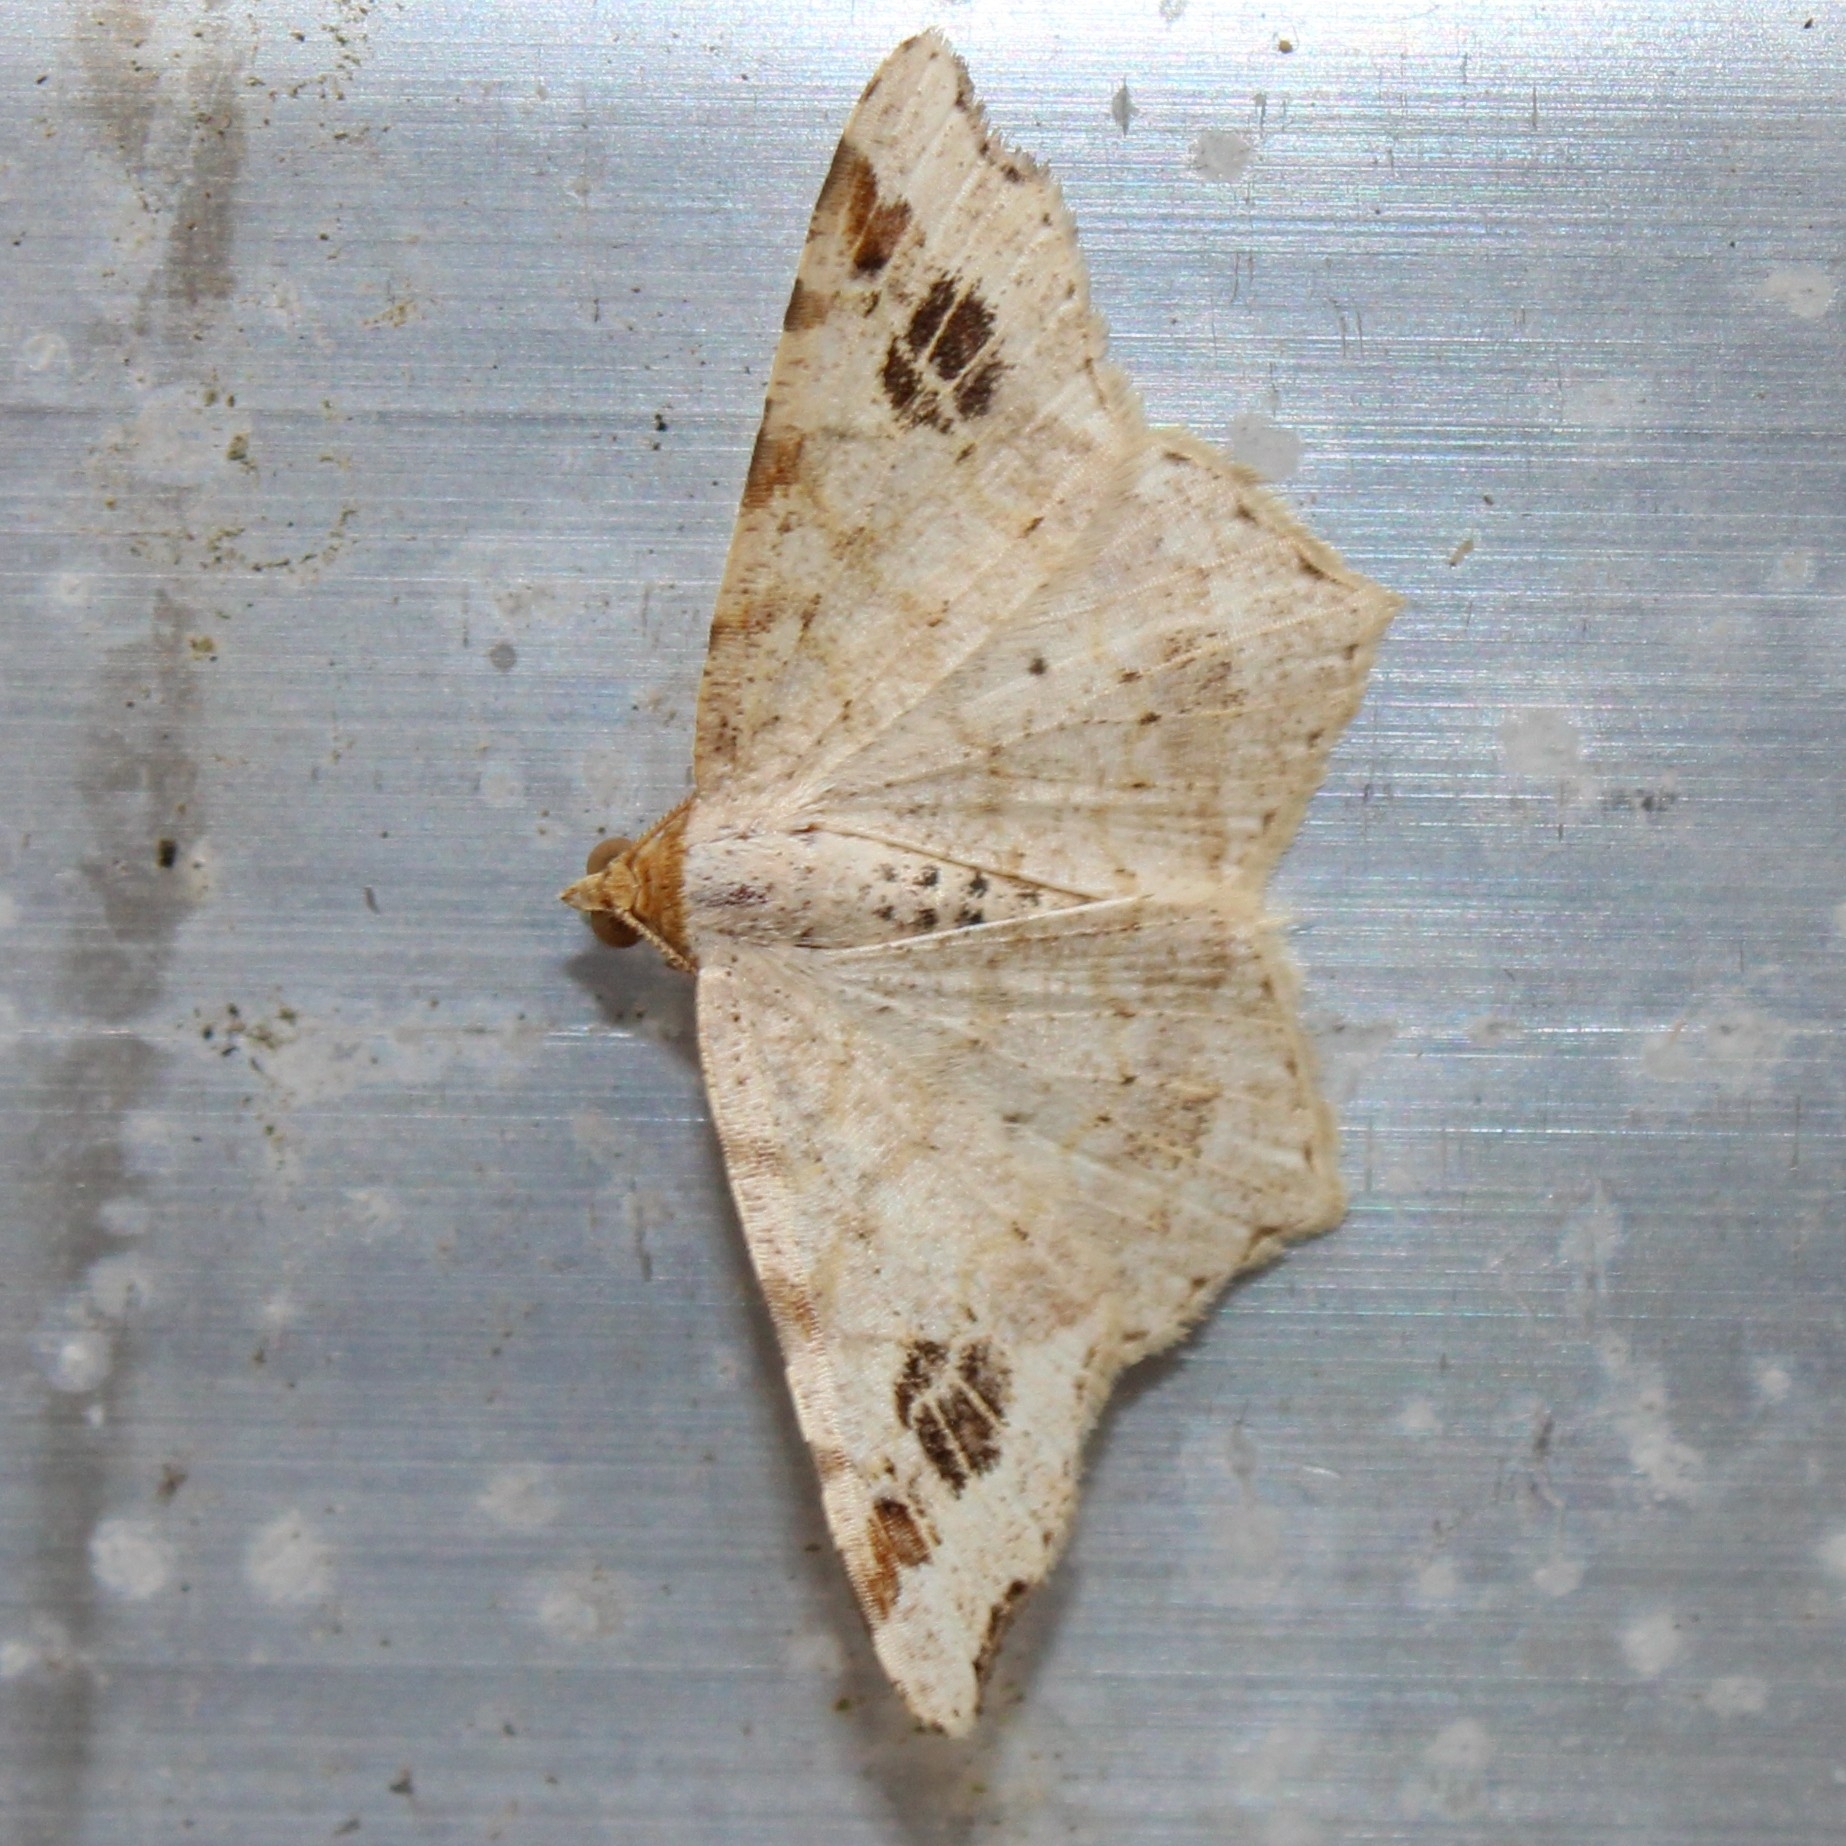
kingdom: Animalia
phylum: Arthropoda
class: Insecta
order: Lepidoptera
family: Geometridae
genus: Macaria
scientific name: Macaria aemulataria
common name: Common angle
